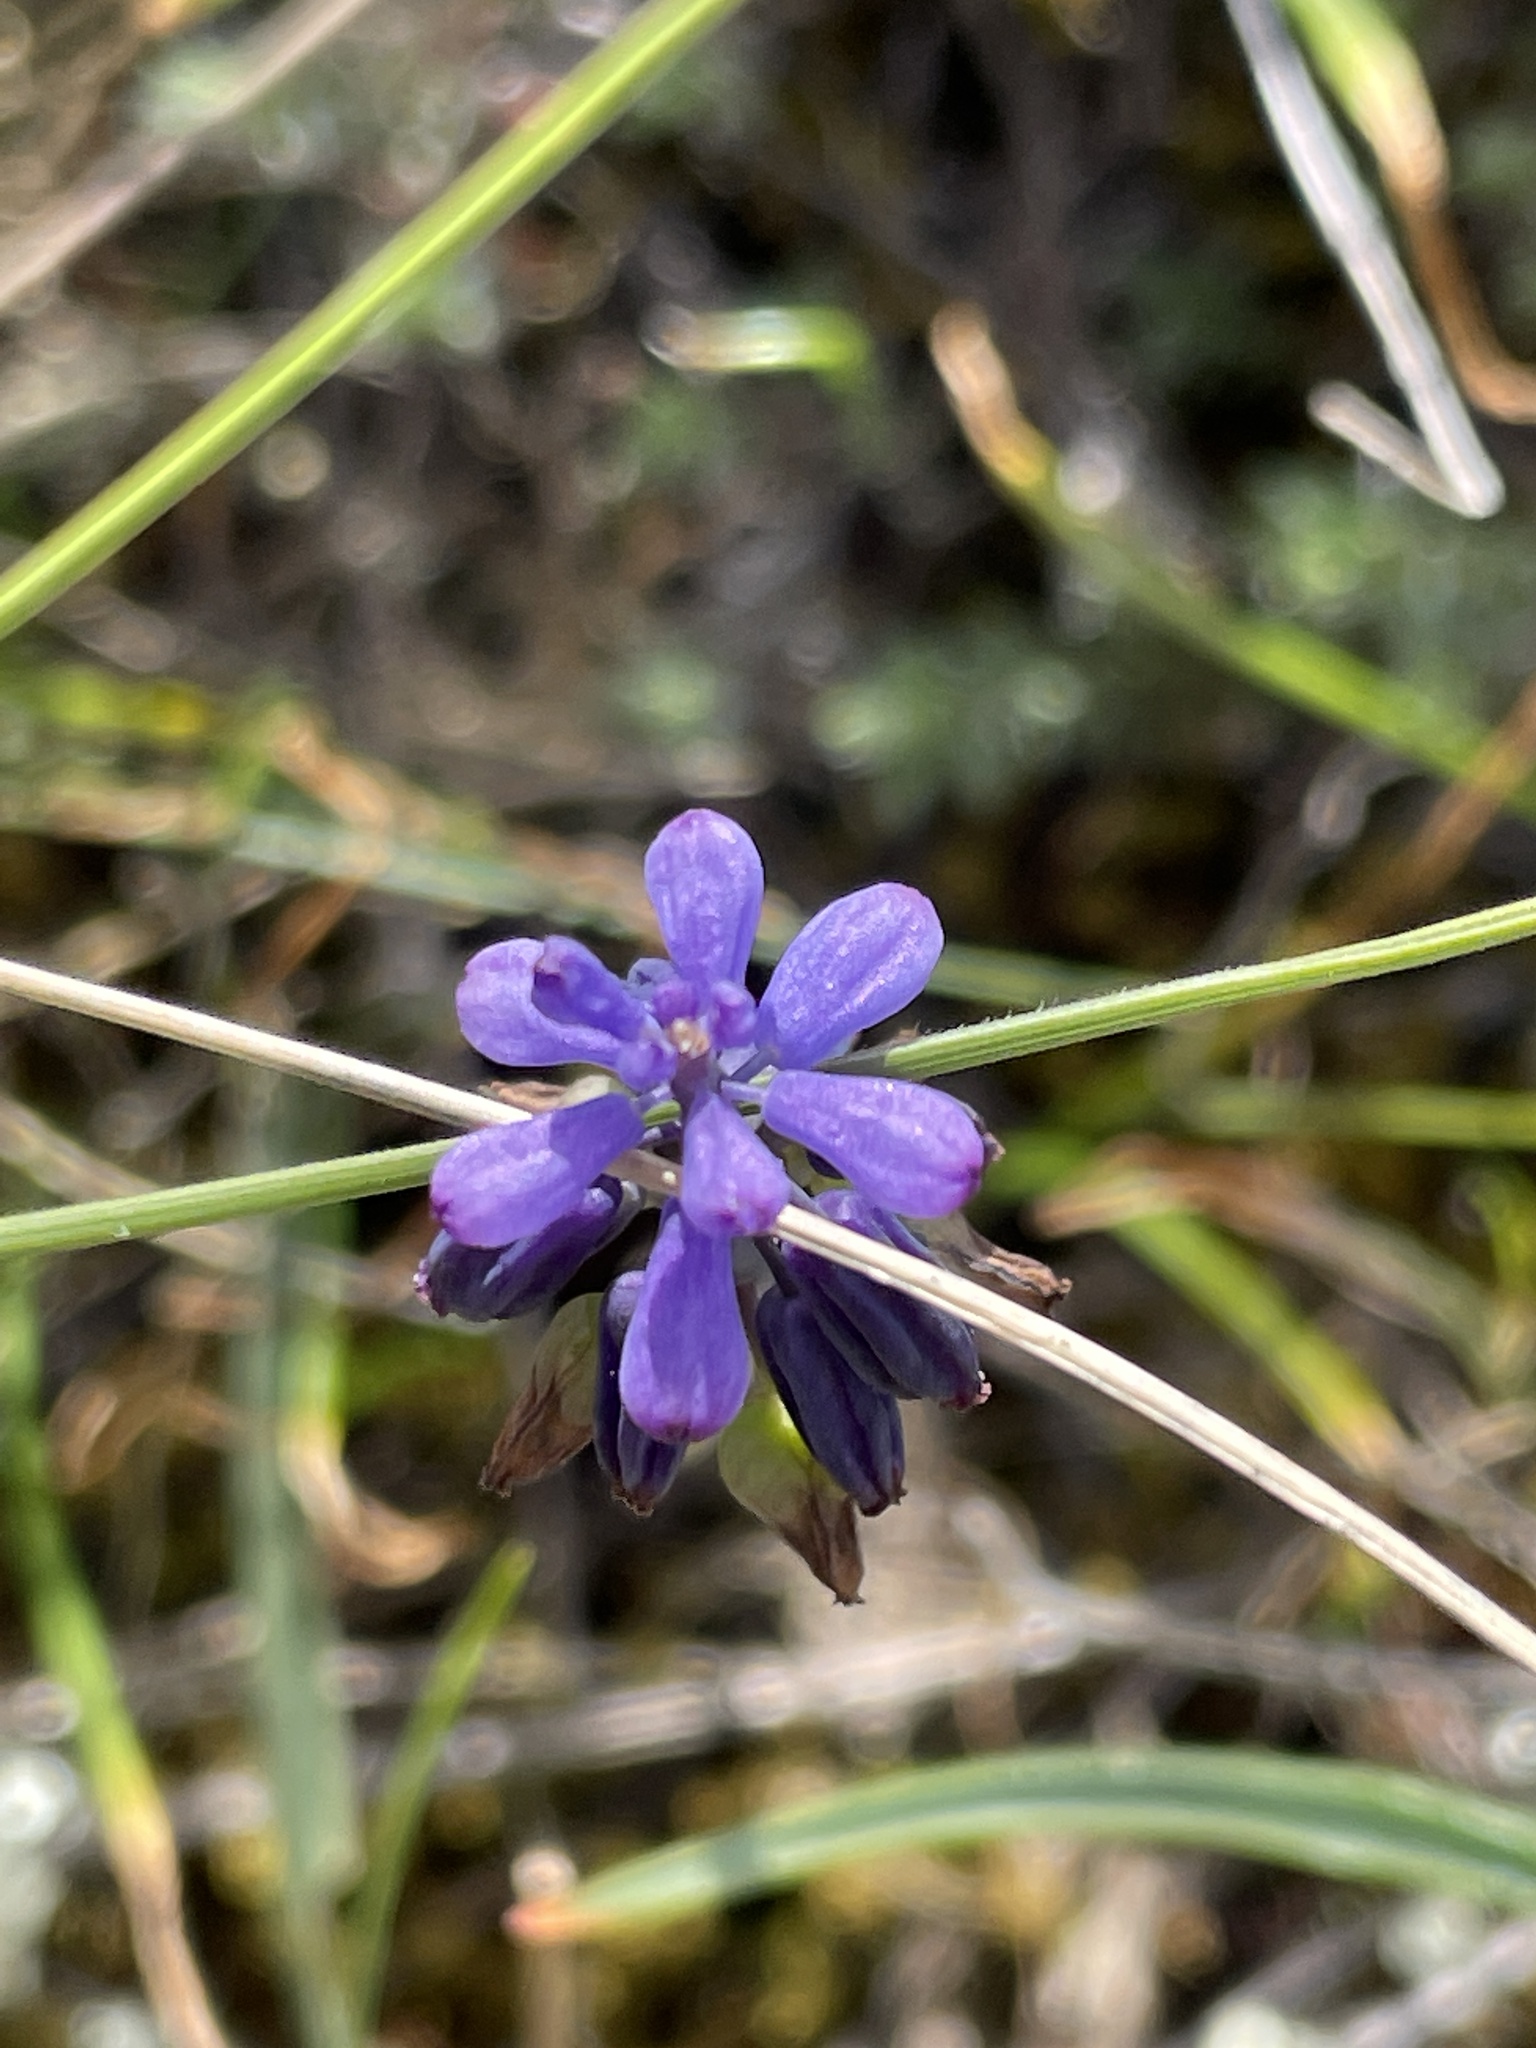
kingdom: Plantae
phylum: Tracheophyta
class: Liliopsida
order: Asparagales
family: Asparagaceae
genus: Muscari
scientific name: Muscari neglectum
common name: Grape-hyacinth
